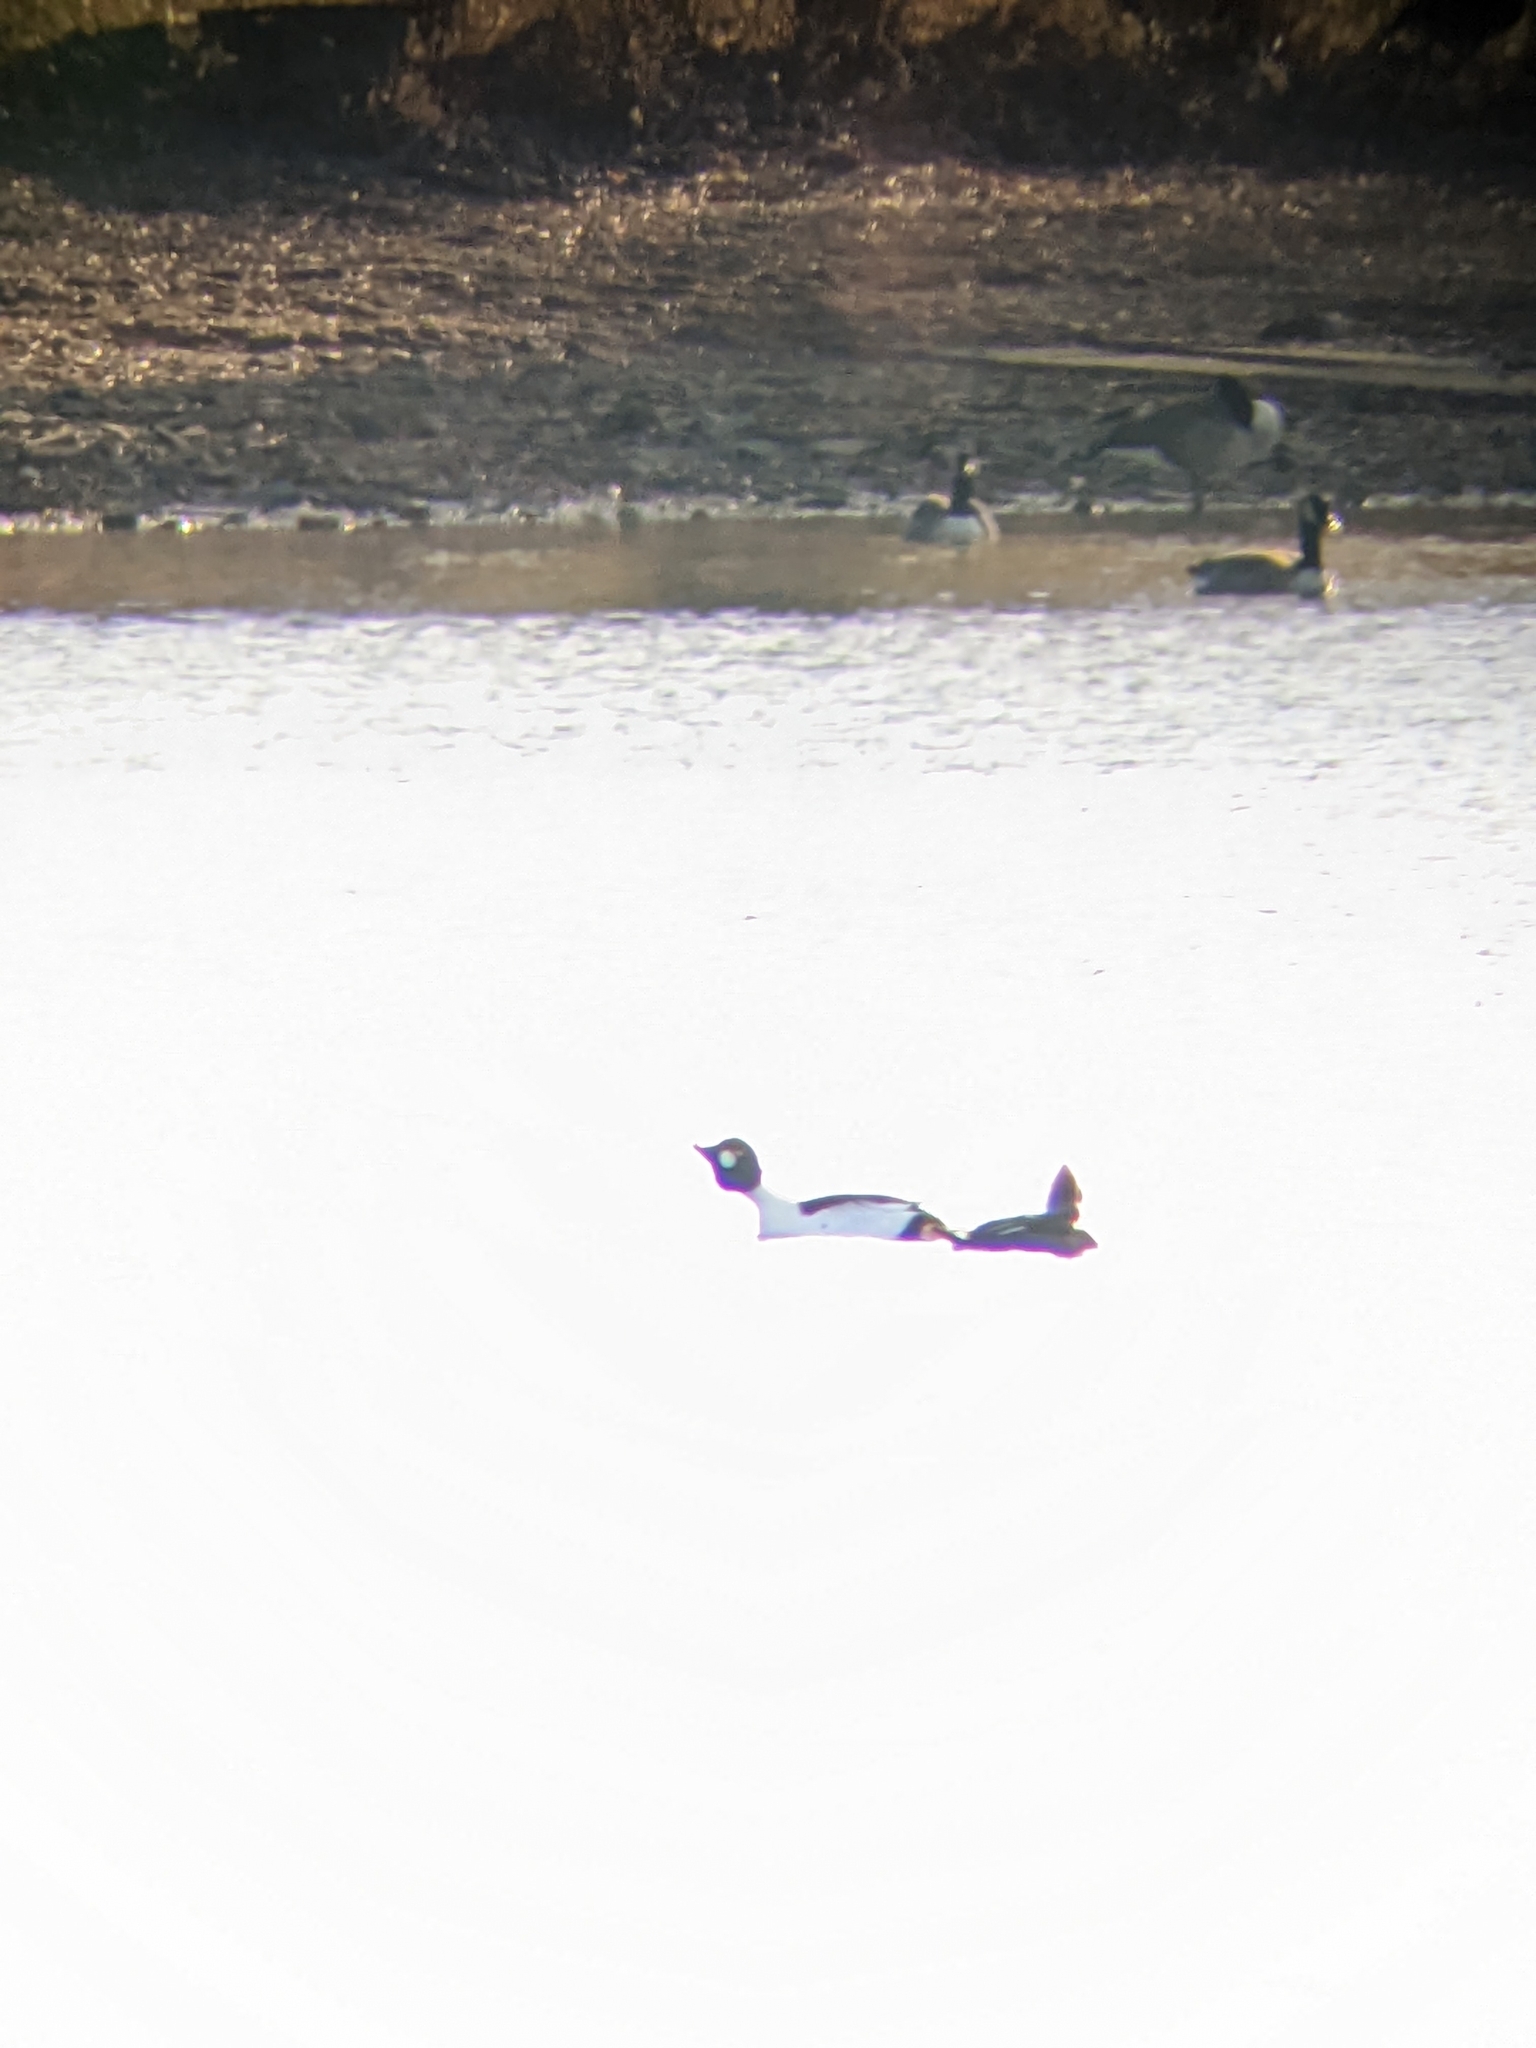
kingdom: Animalia
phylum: Chordata
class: Aves
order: Anseriformes
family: Anatidae
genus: Bucephala
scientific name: Bucephala clangula
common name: Common goldeneye
